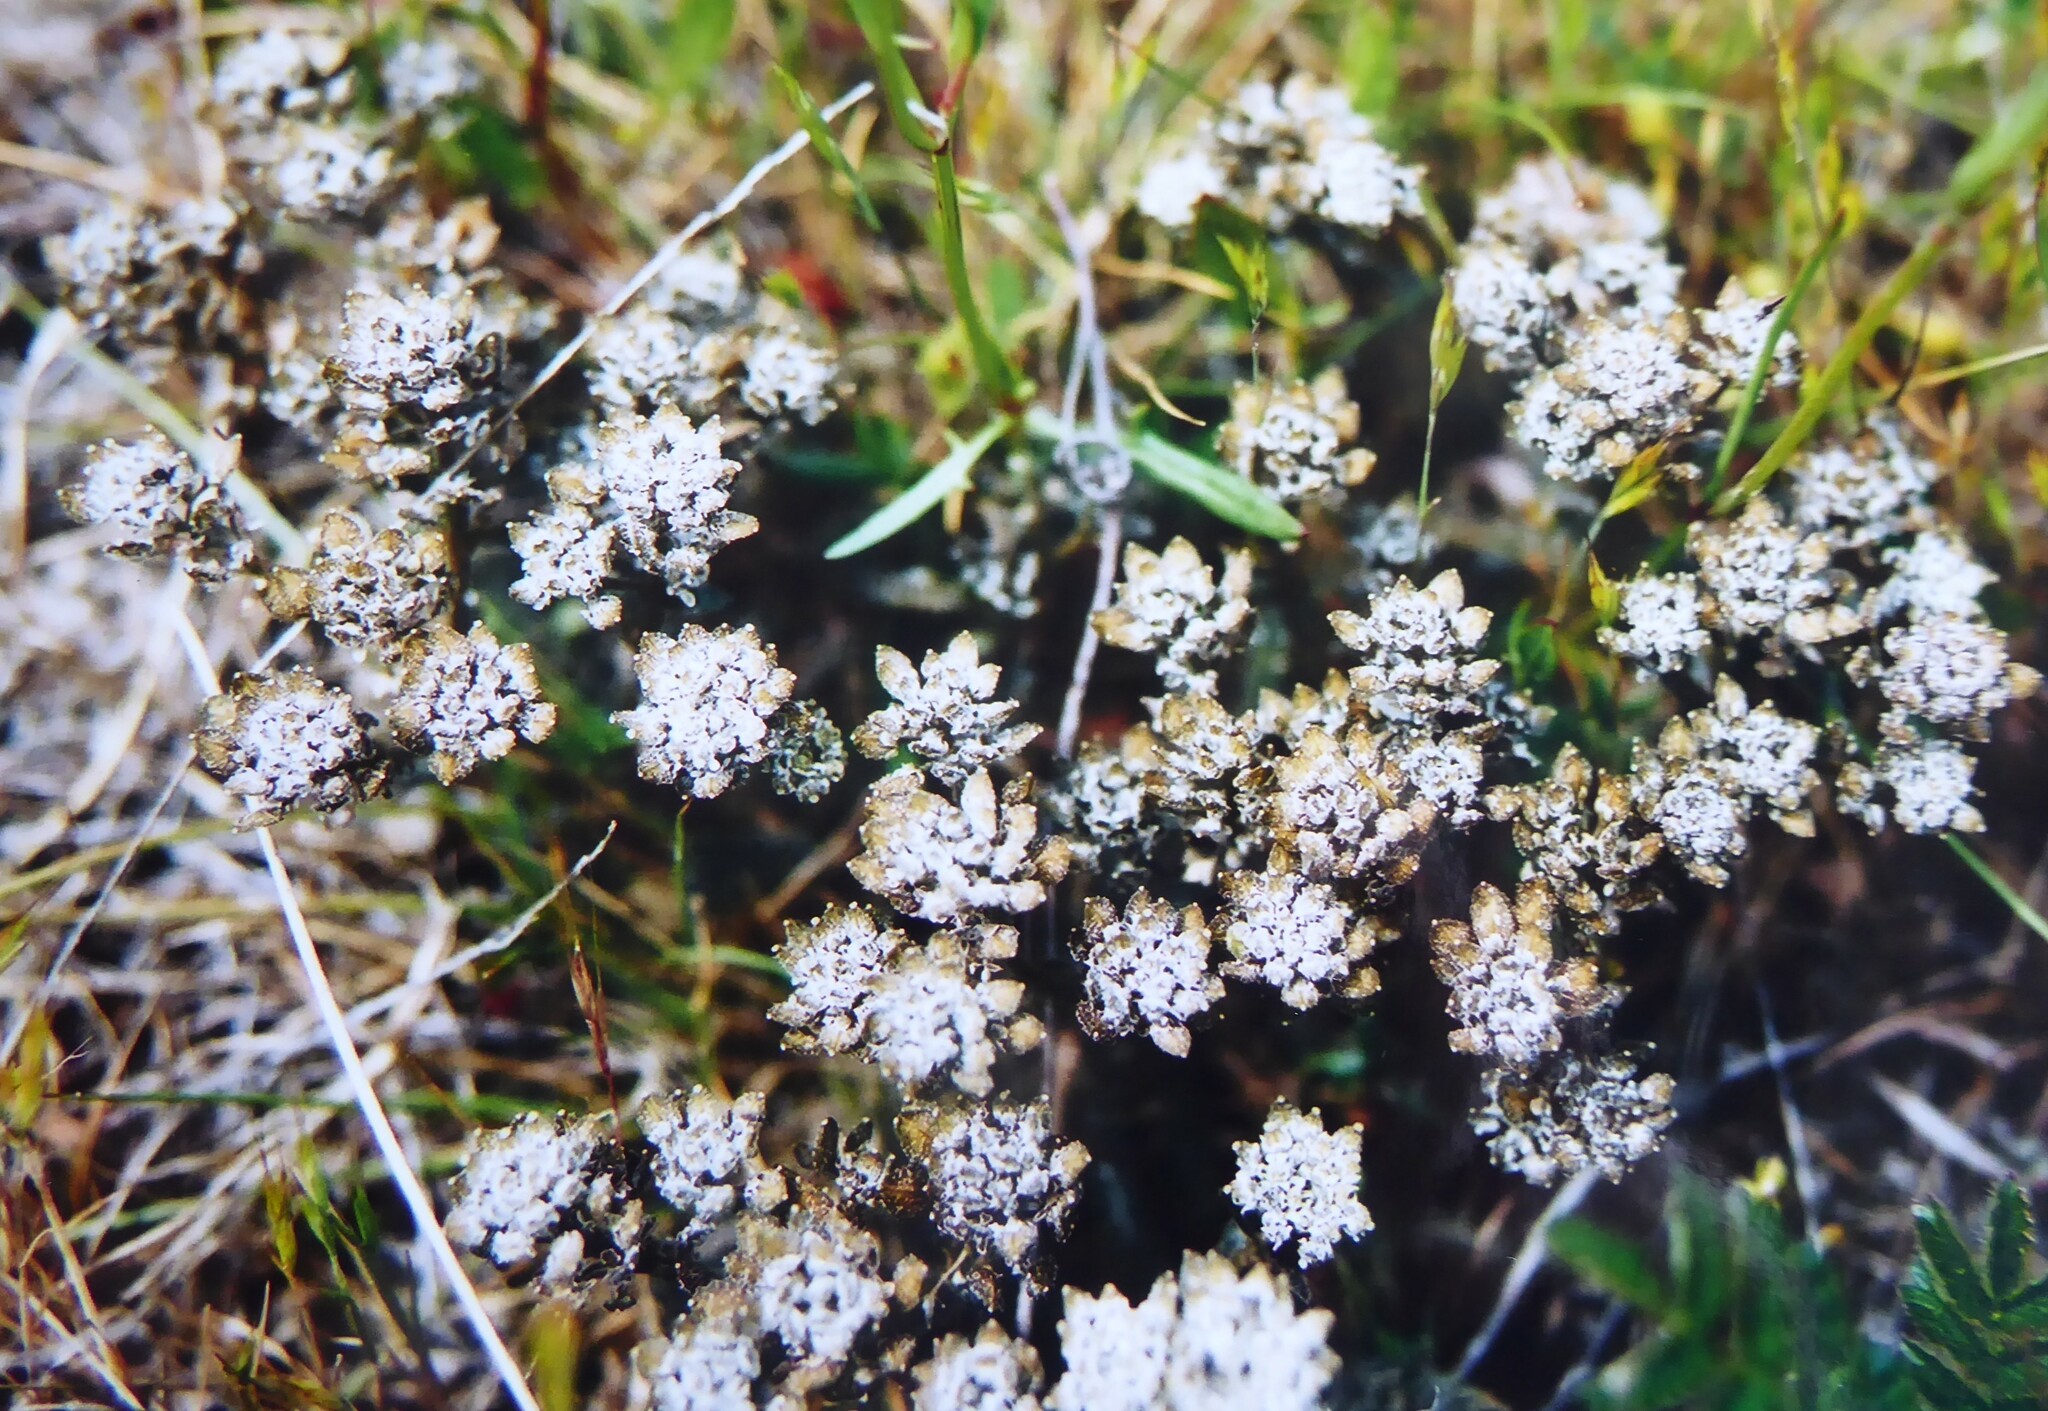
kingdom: Plantae
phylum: Tracheophyta
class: Magnoliopsida
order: Brassicales
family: Brassicaceae
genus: Lepidium
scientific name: Lepidium sisymbrioides
